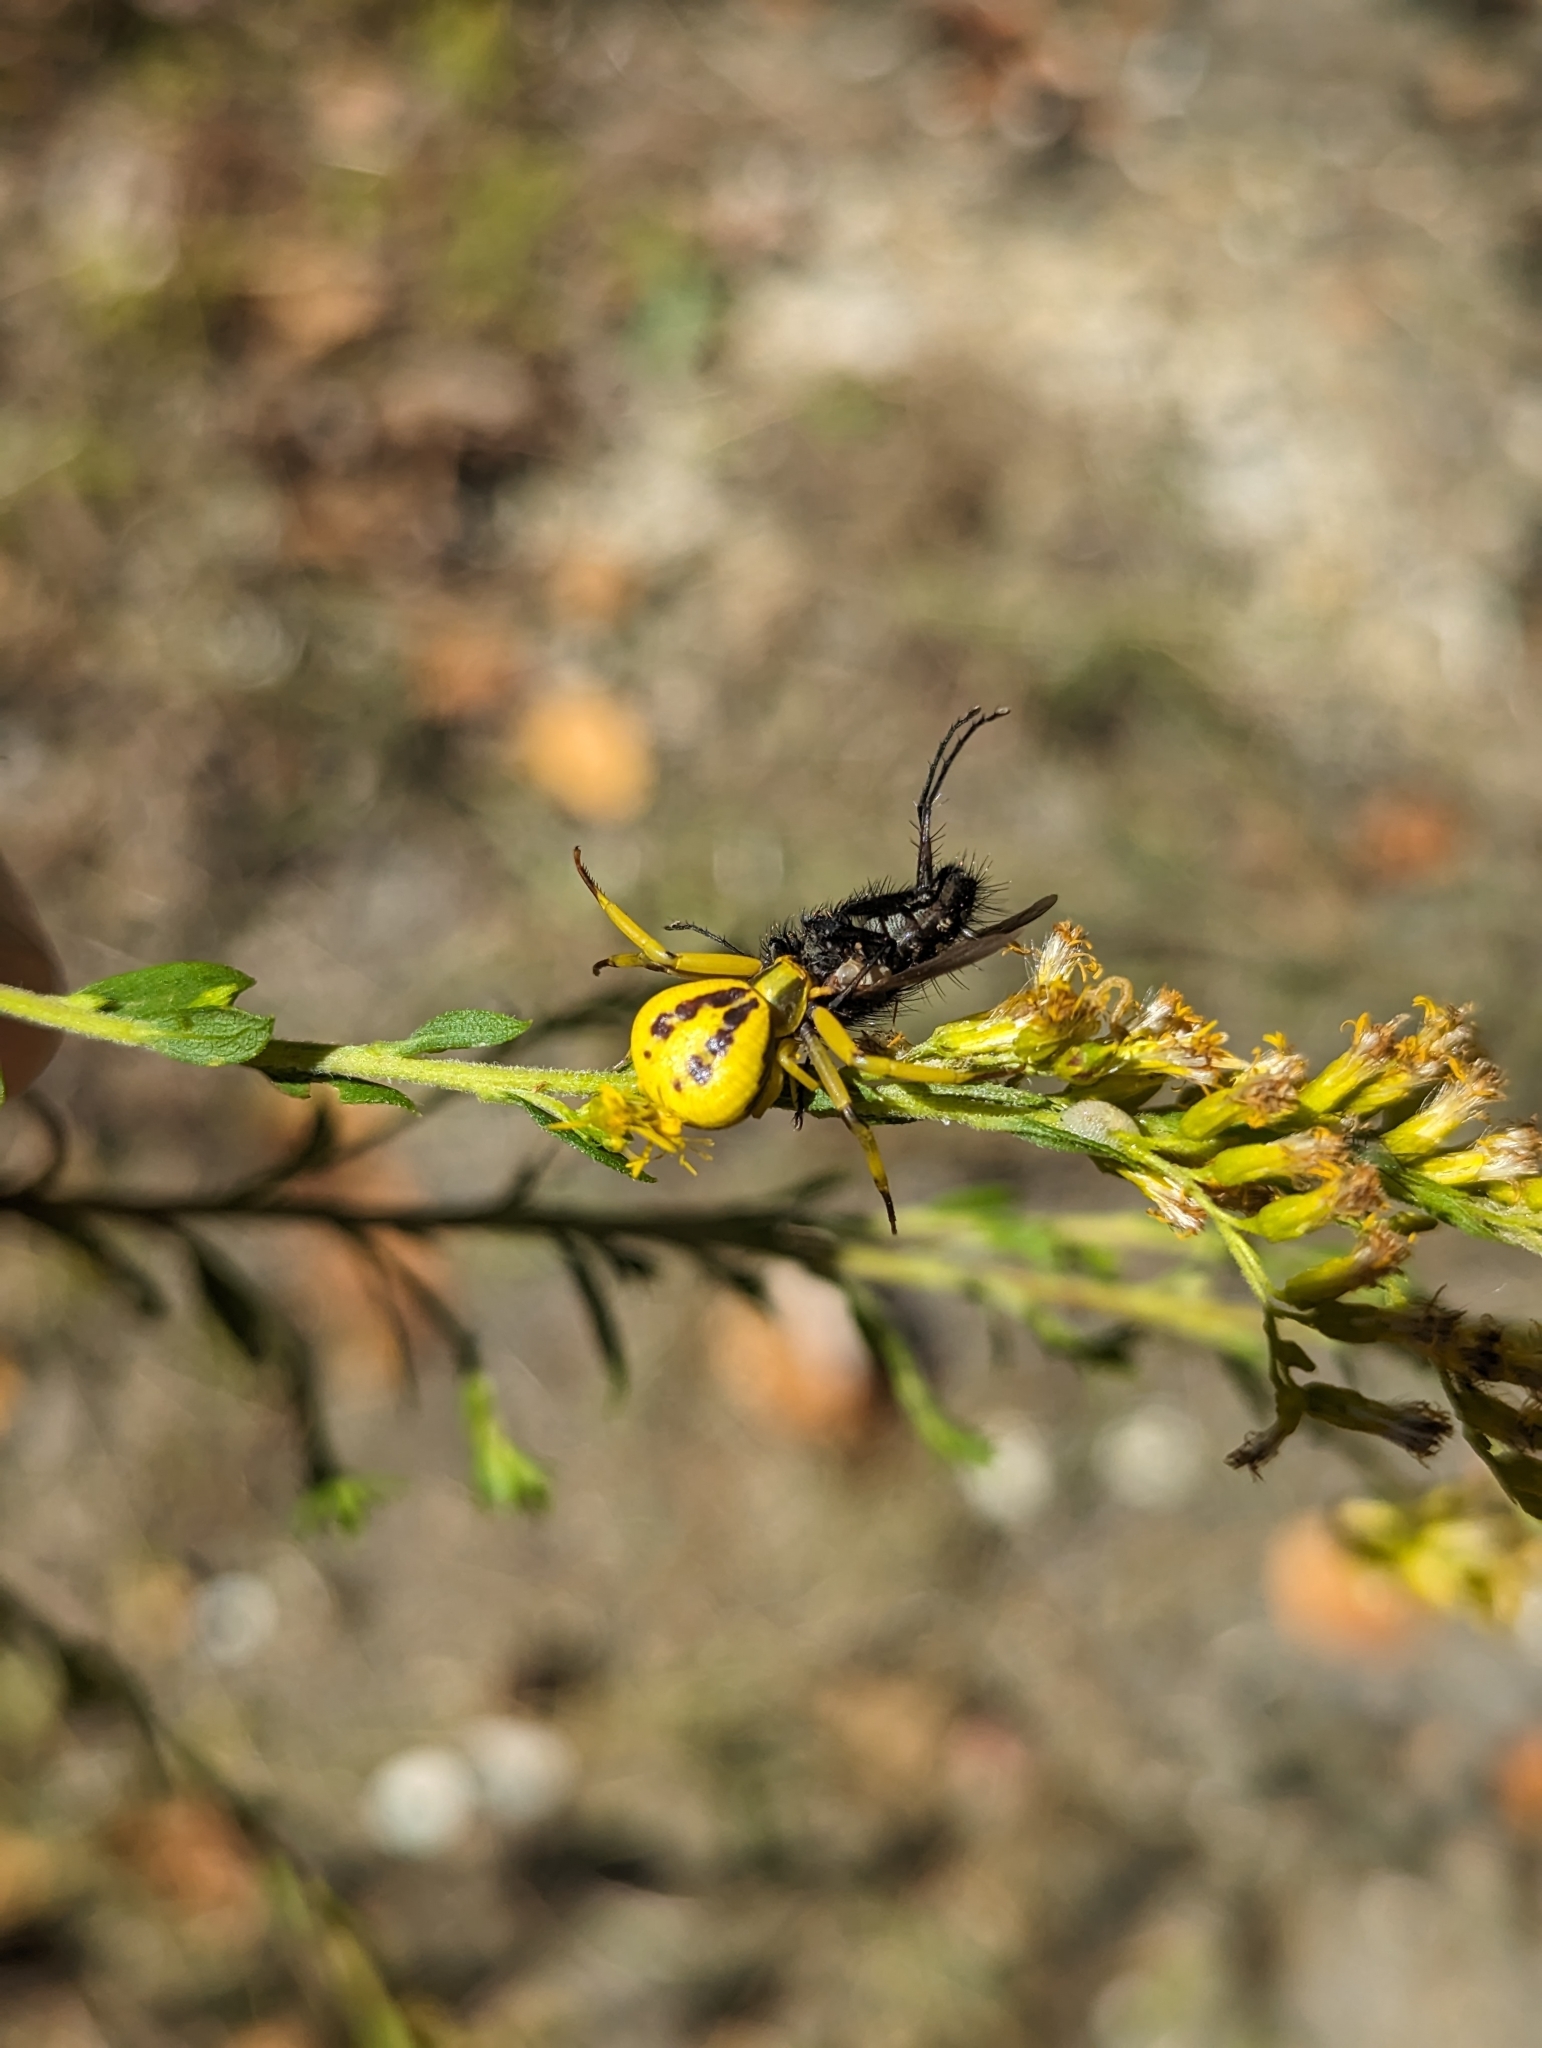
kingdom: Animalia
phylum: Arthropoda
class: Arachnida
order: Araneae
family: Thomisidae
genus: Misumenoides
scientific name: Misumenoides formosipes
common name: White-banded crab spider
